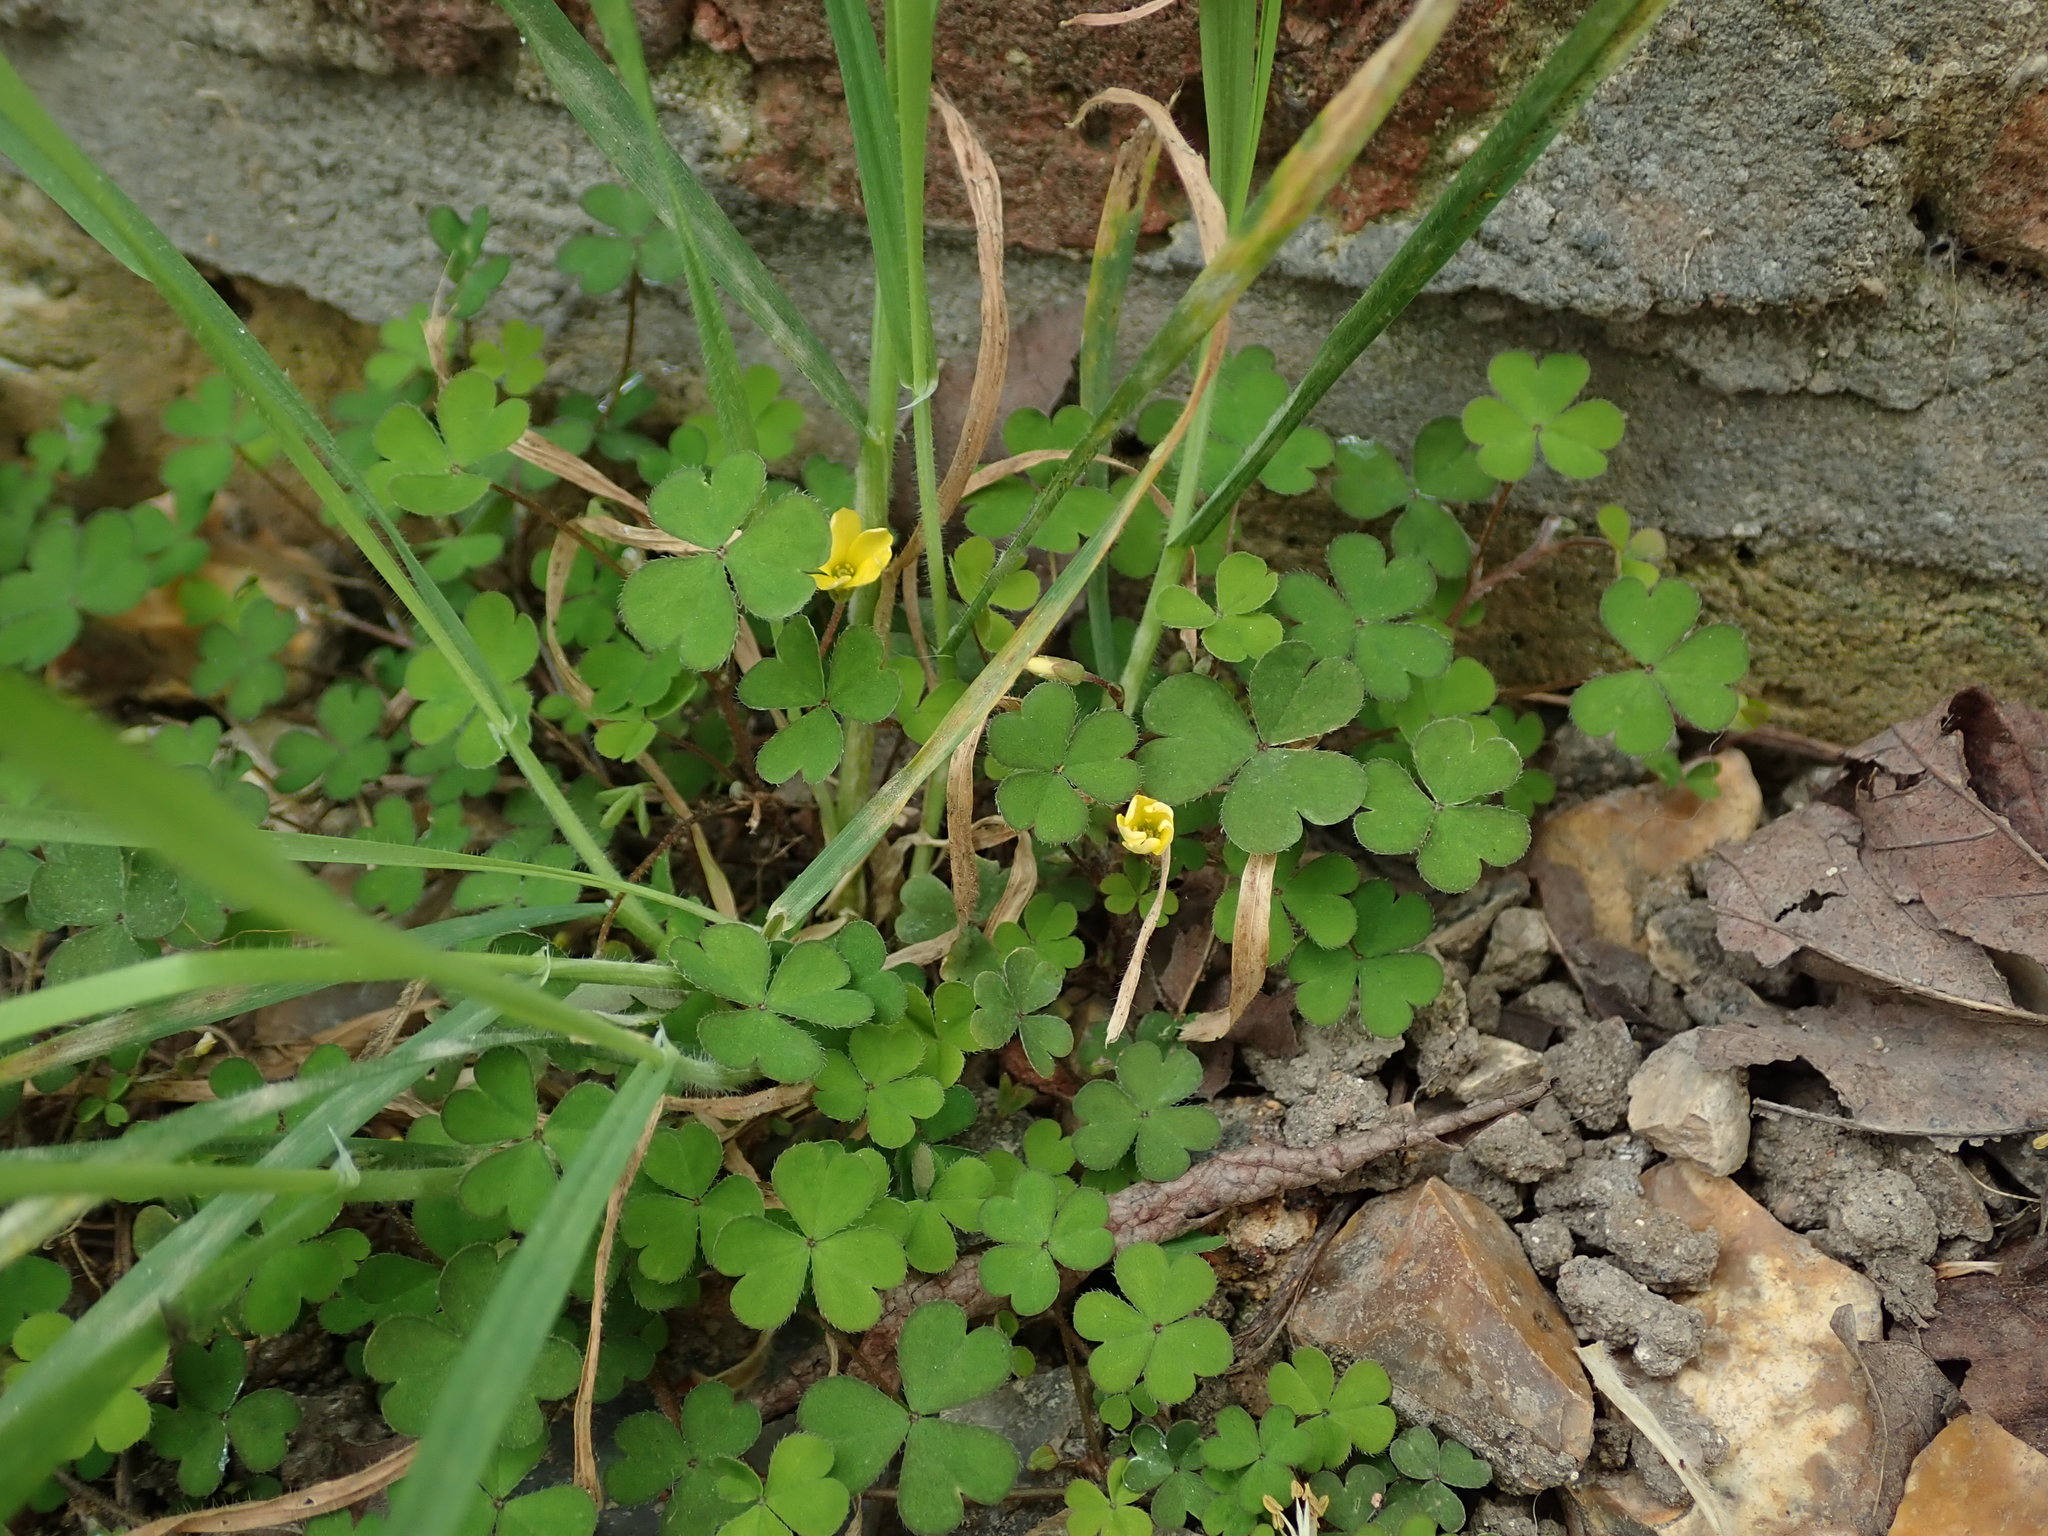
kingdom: Plantae
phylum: Tracheophyta
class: Magnoliopsida
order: Oxalidales
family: Oxalidaceae
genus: Oxalis
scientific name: Oxalis exilis
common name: Least yellow-sorrel
